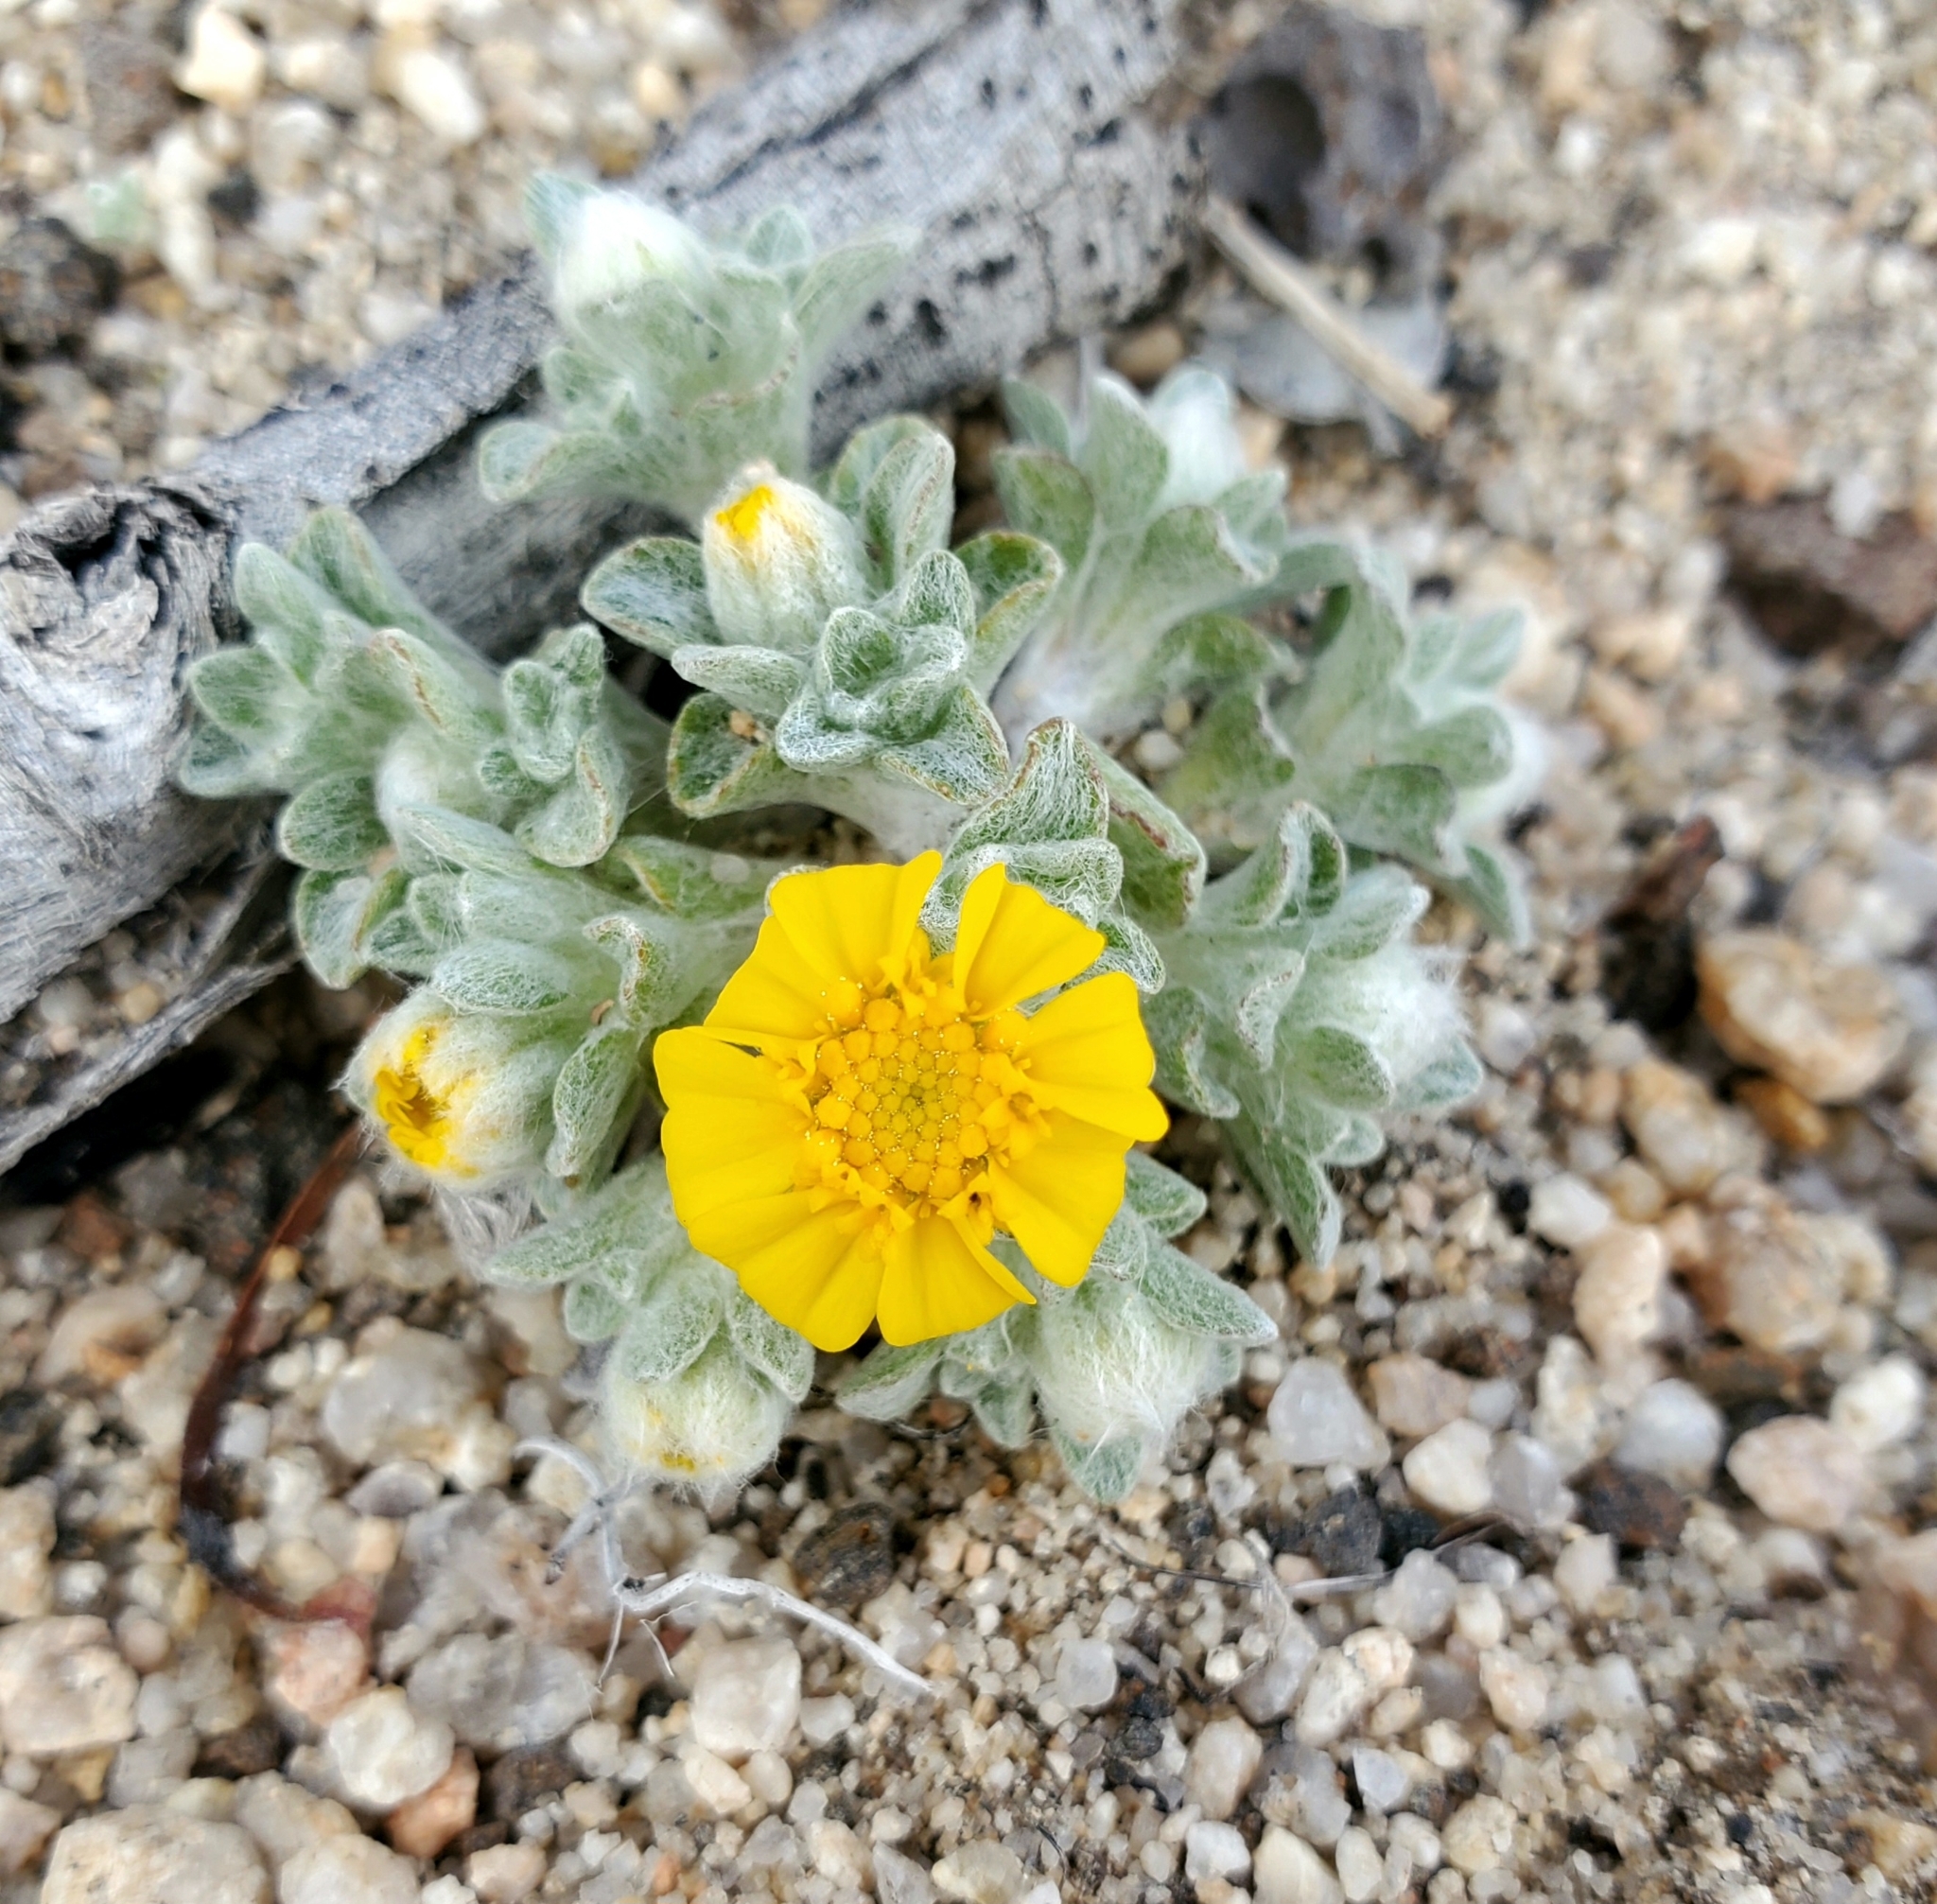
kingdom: Plantae
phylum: Tracheophyta
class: Magnoliopsida
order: Asterales
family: Asteraceae
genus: Eriophyllum
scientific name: Eriophyllum wallacei
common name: Wallace's woolly daisy
